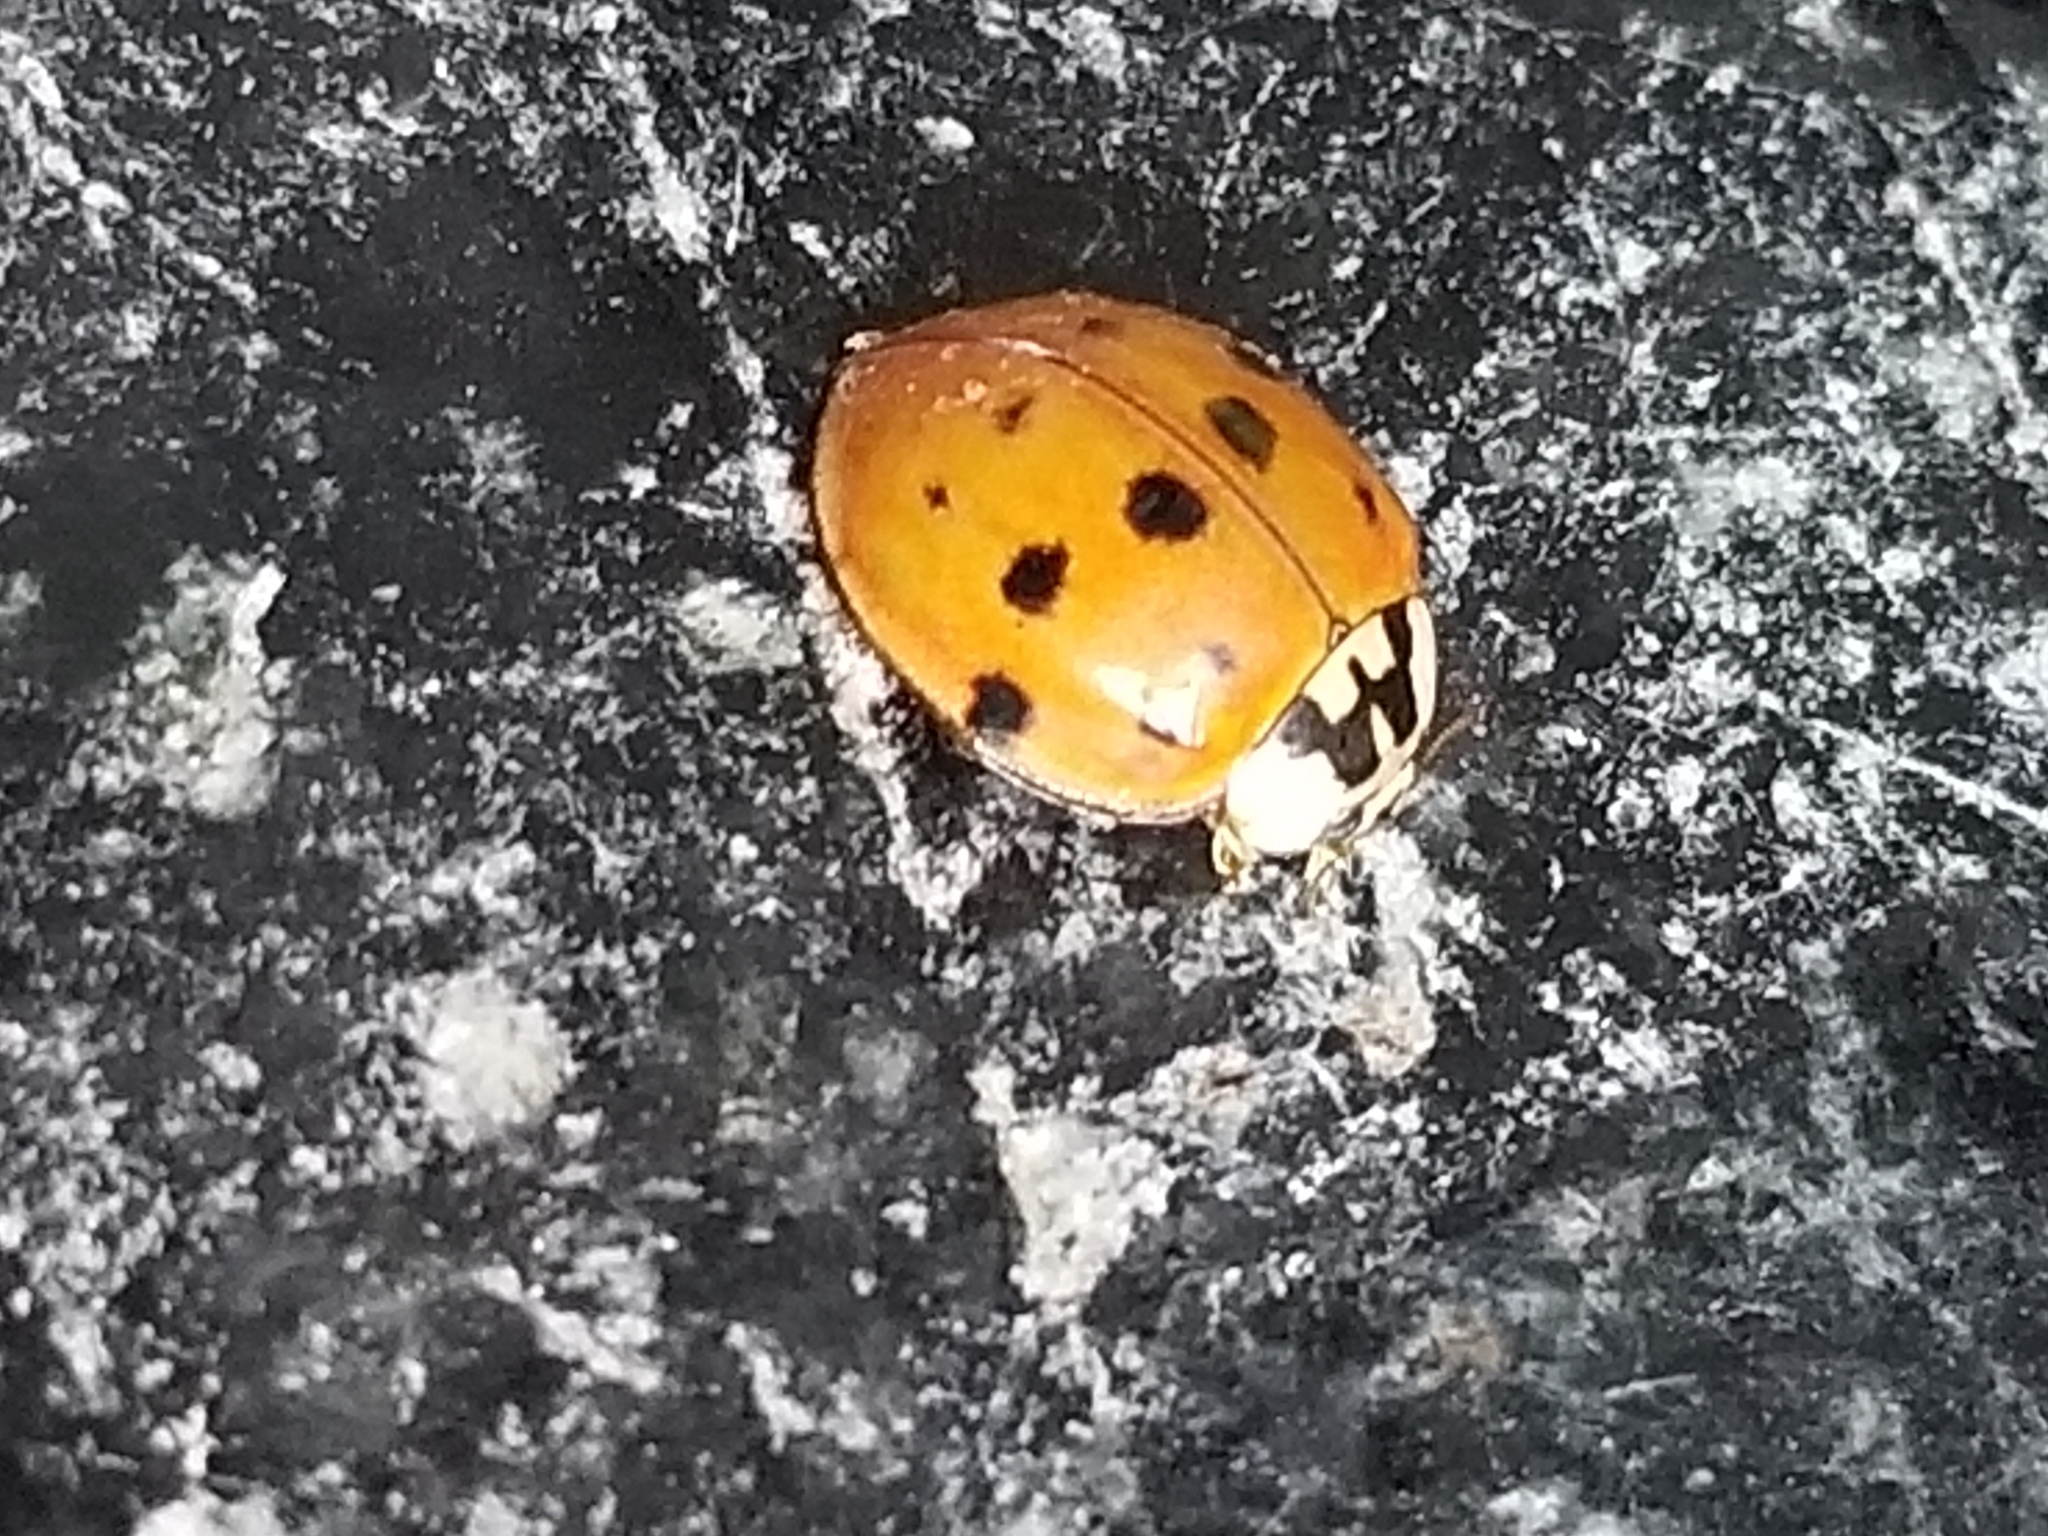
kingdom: Animalia
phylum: Arthropoda
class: Insecta
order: Coleoptera
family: Coccinellidae
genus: Harmonia
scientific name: Harmonia axyridis
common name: Harlequin ladybird
